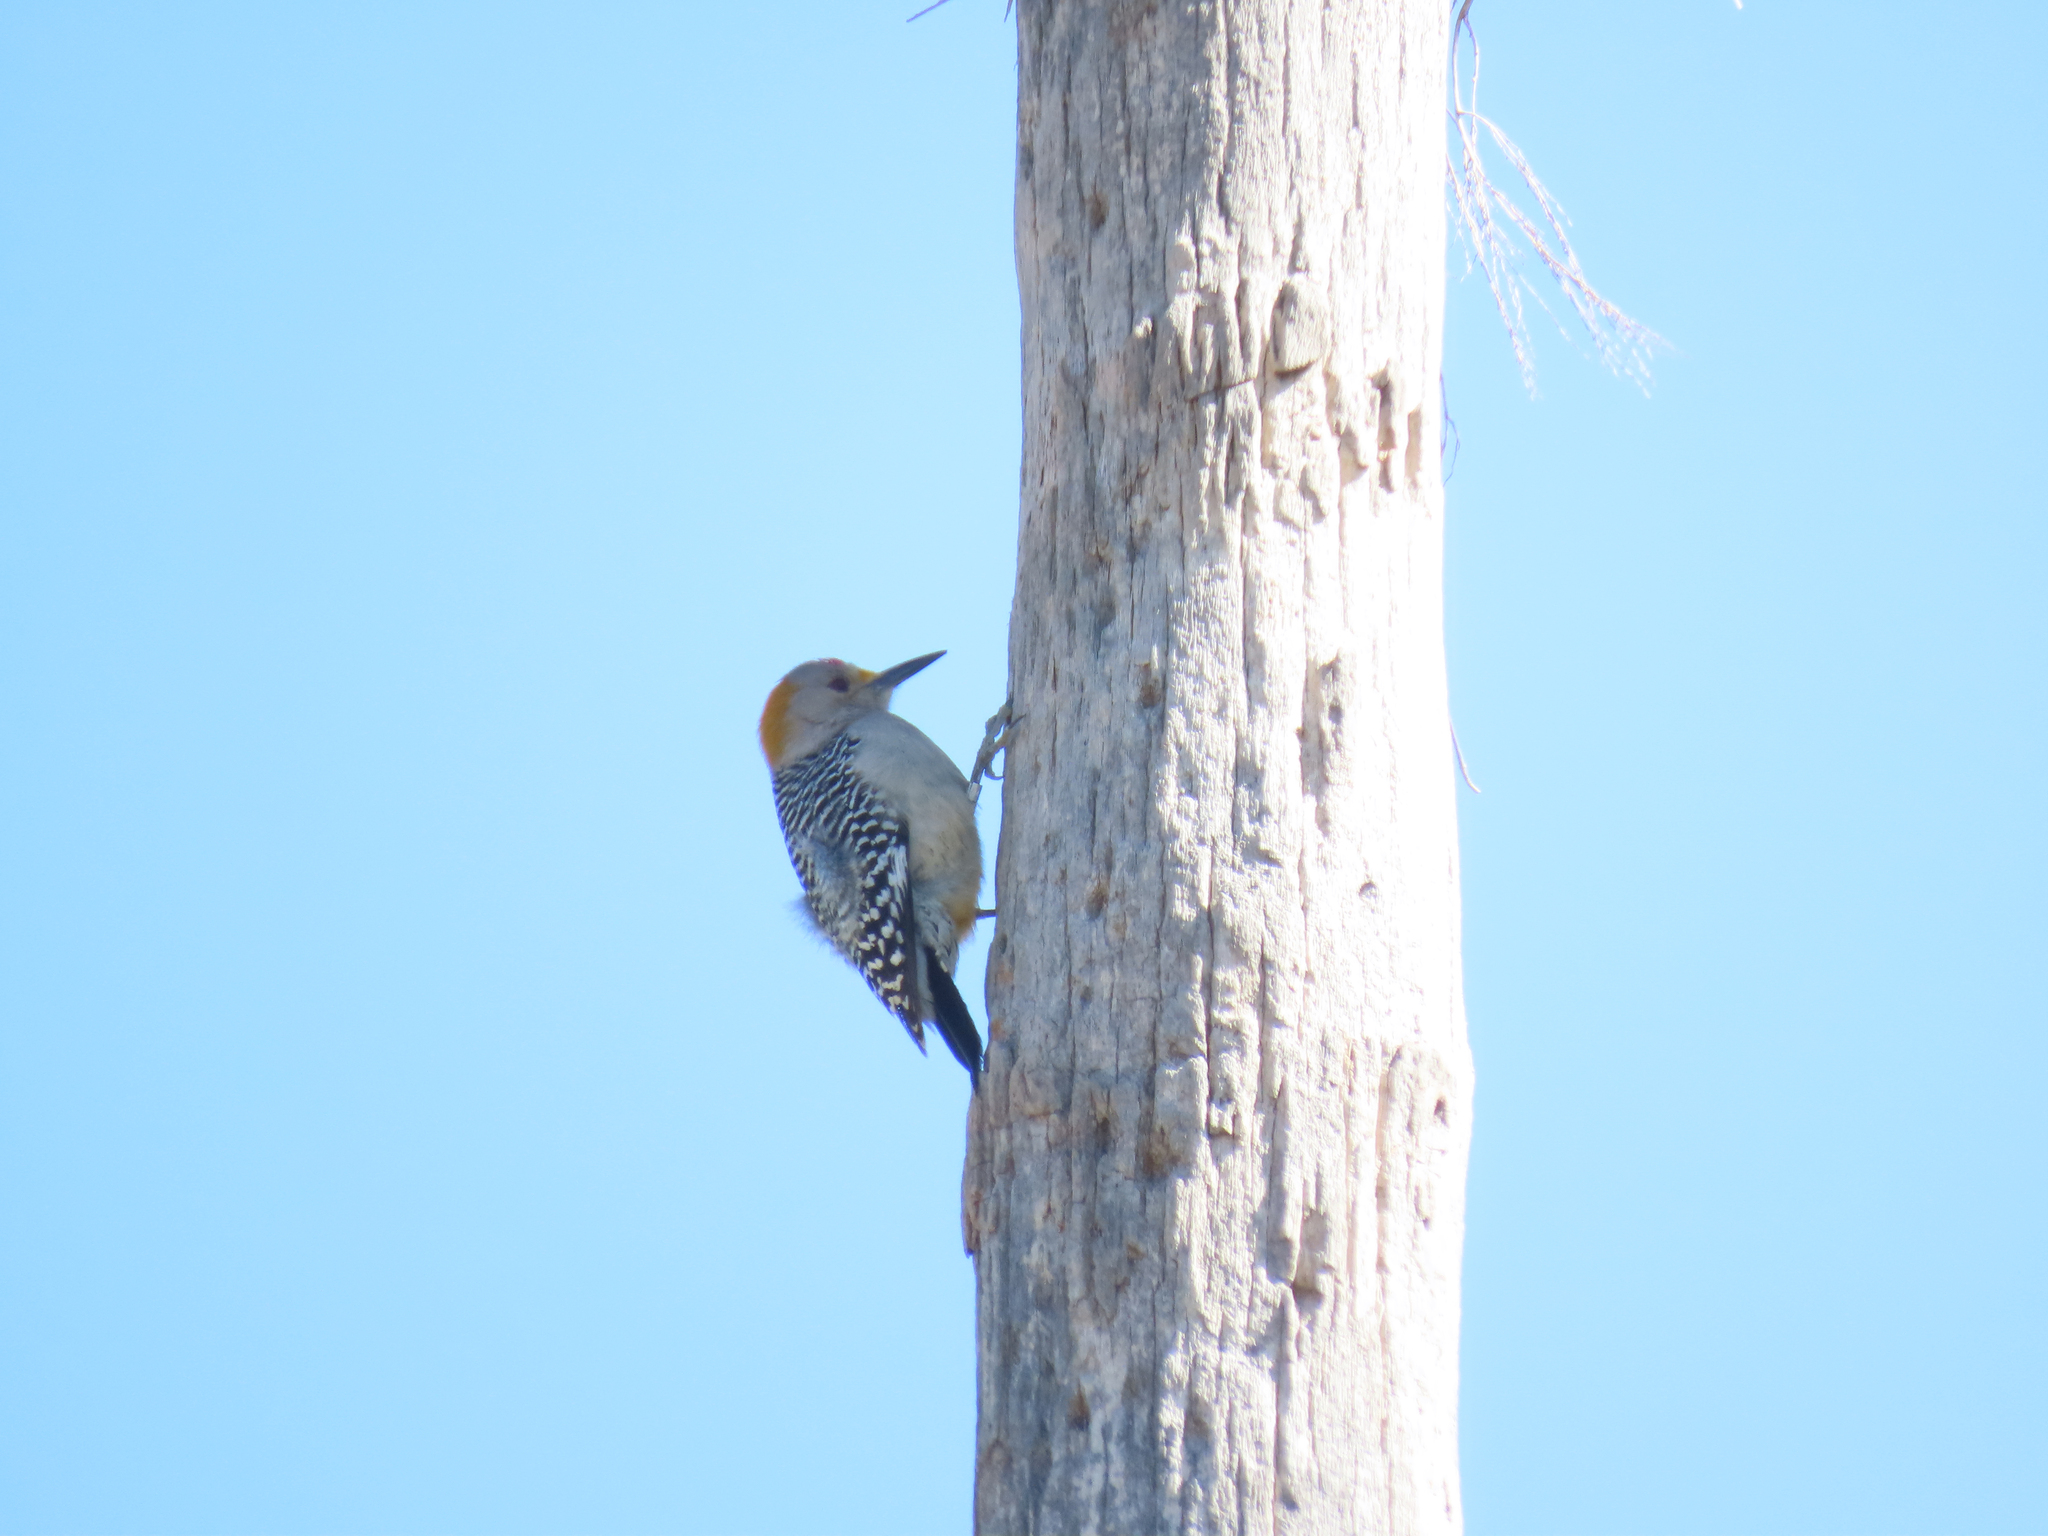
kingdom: Animalia
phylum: Chordata
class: Aves
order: Piciformes
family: Picidae
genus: Melanerpes
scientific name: Melanerpes aurifrons
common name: Golden-fronted woodpecker
